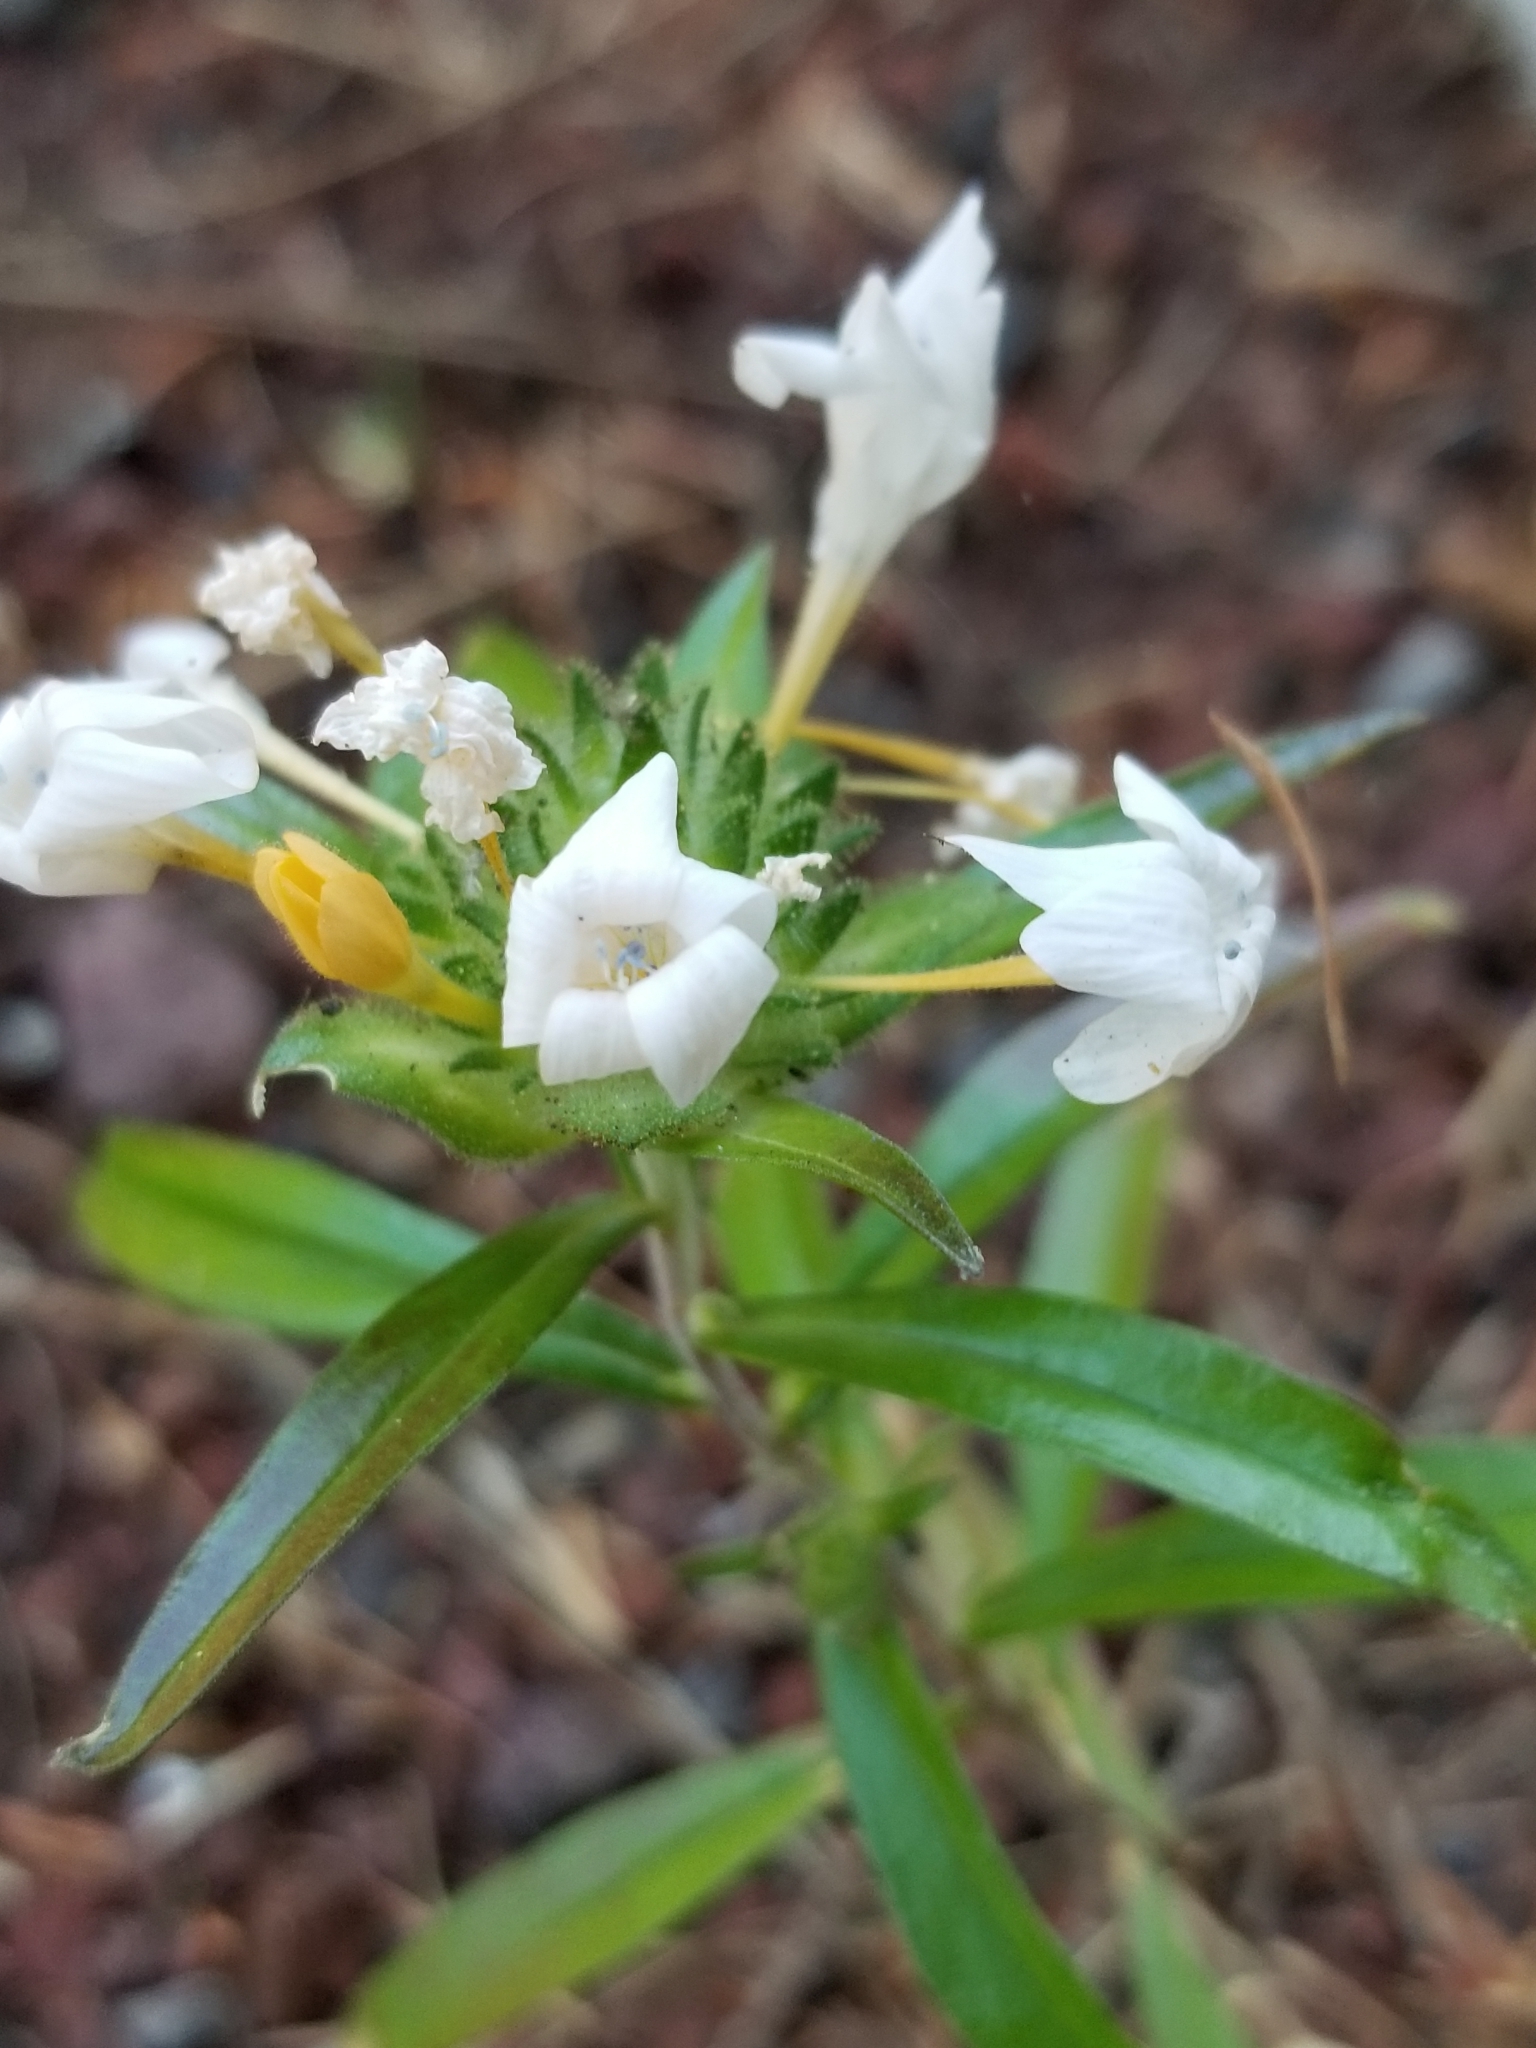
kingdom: Plantae
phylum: Tracheophyta
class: Magnoliopsida
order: Ericales
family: Polemoniaceae
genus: Collomia
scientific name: Collomia grandiflora
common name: California strawflower
